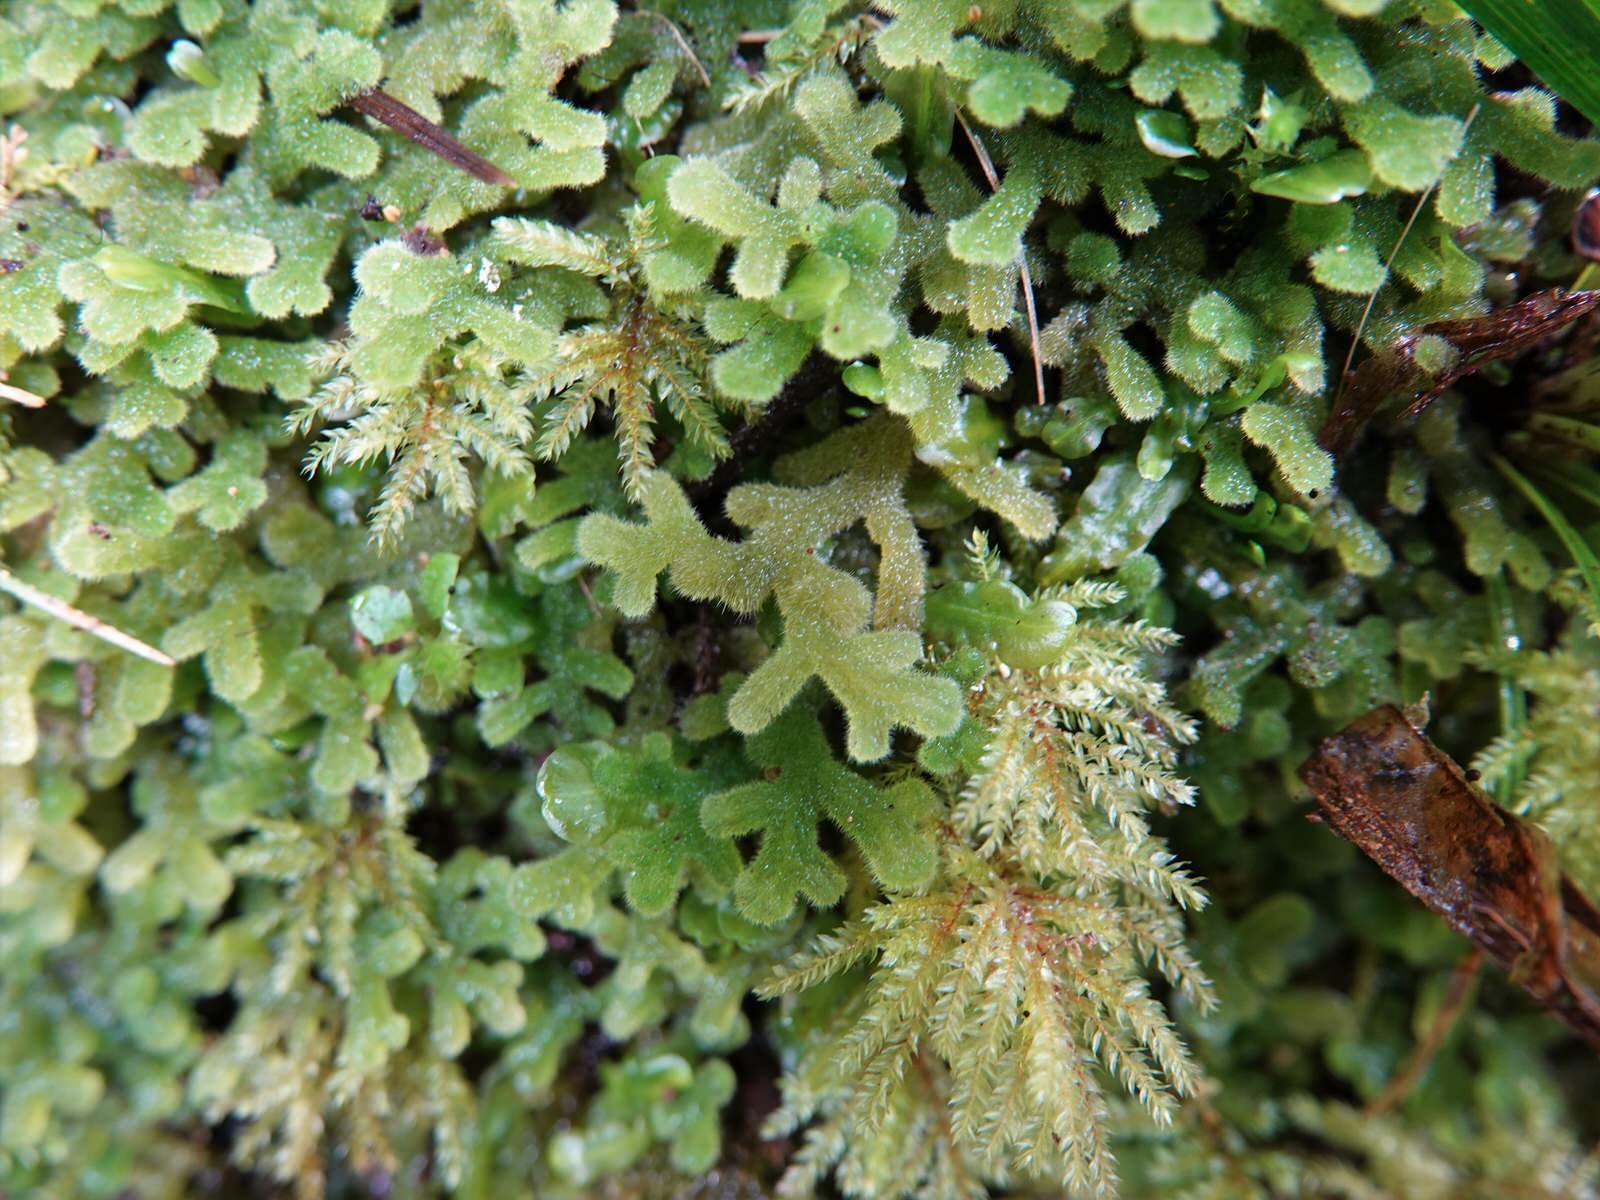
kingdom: Plantae
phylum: Marchantiophyta
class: Jungermanniopsida
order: Jungermanniales
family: Trichocoleaceae
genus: Leiomitra
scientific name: Leiomitra lanata
